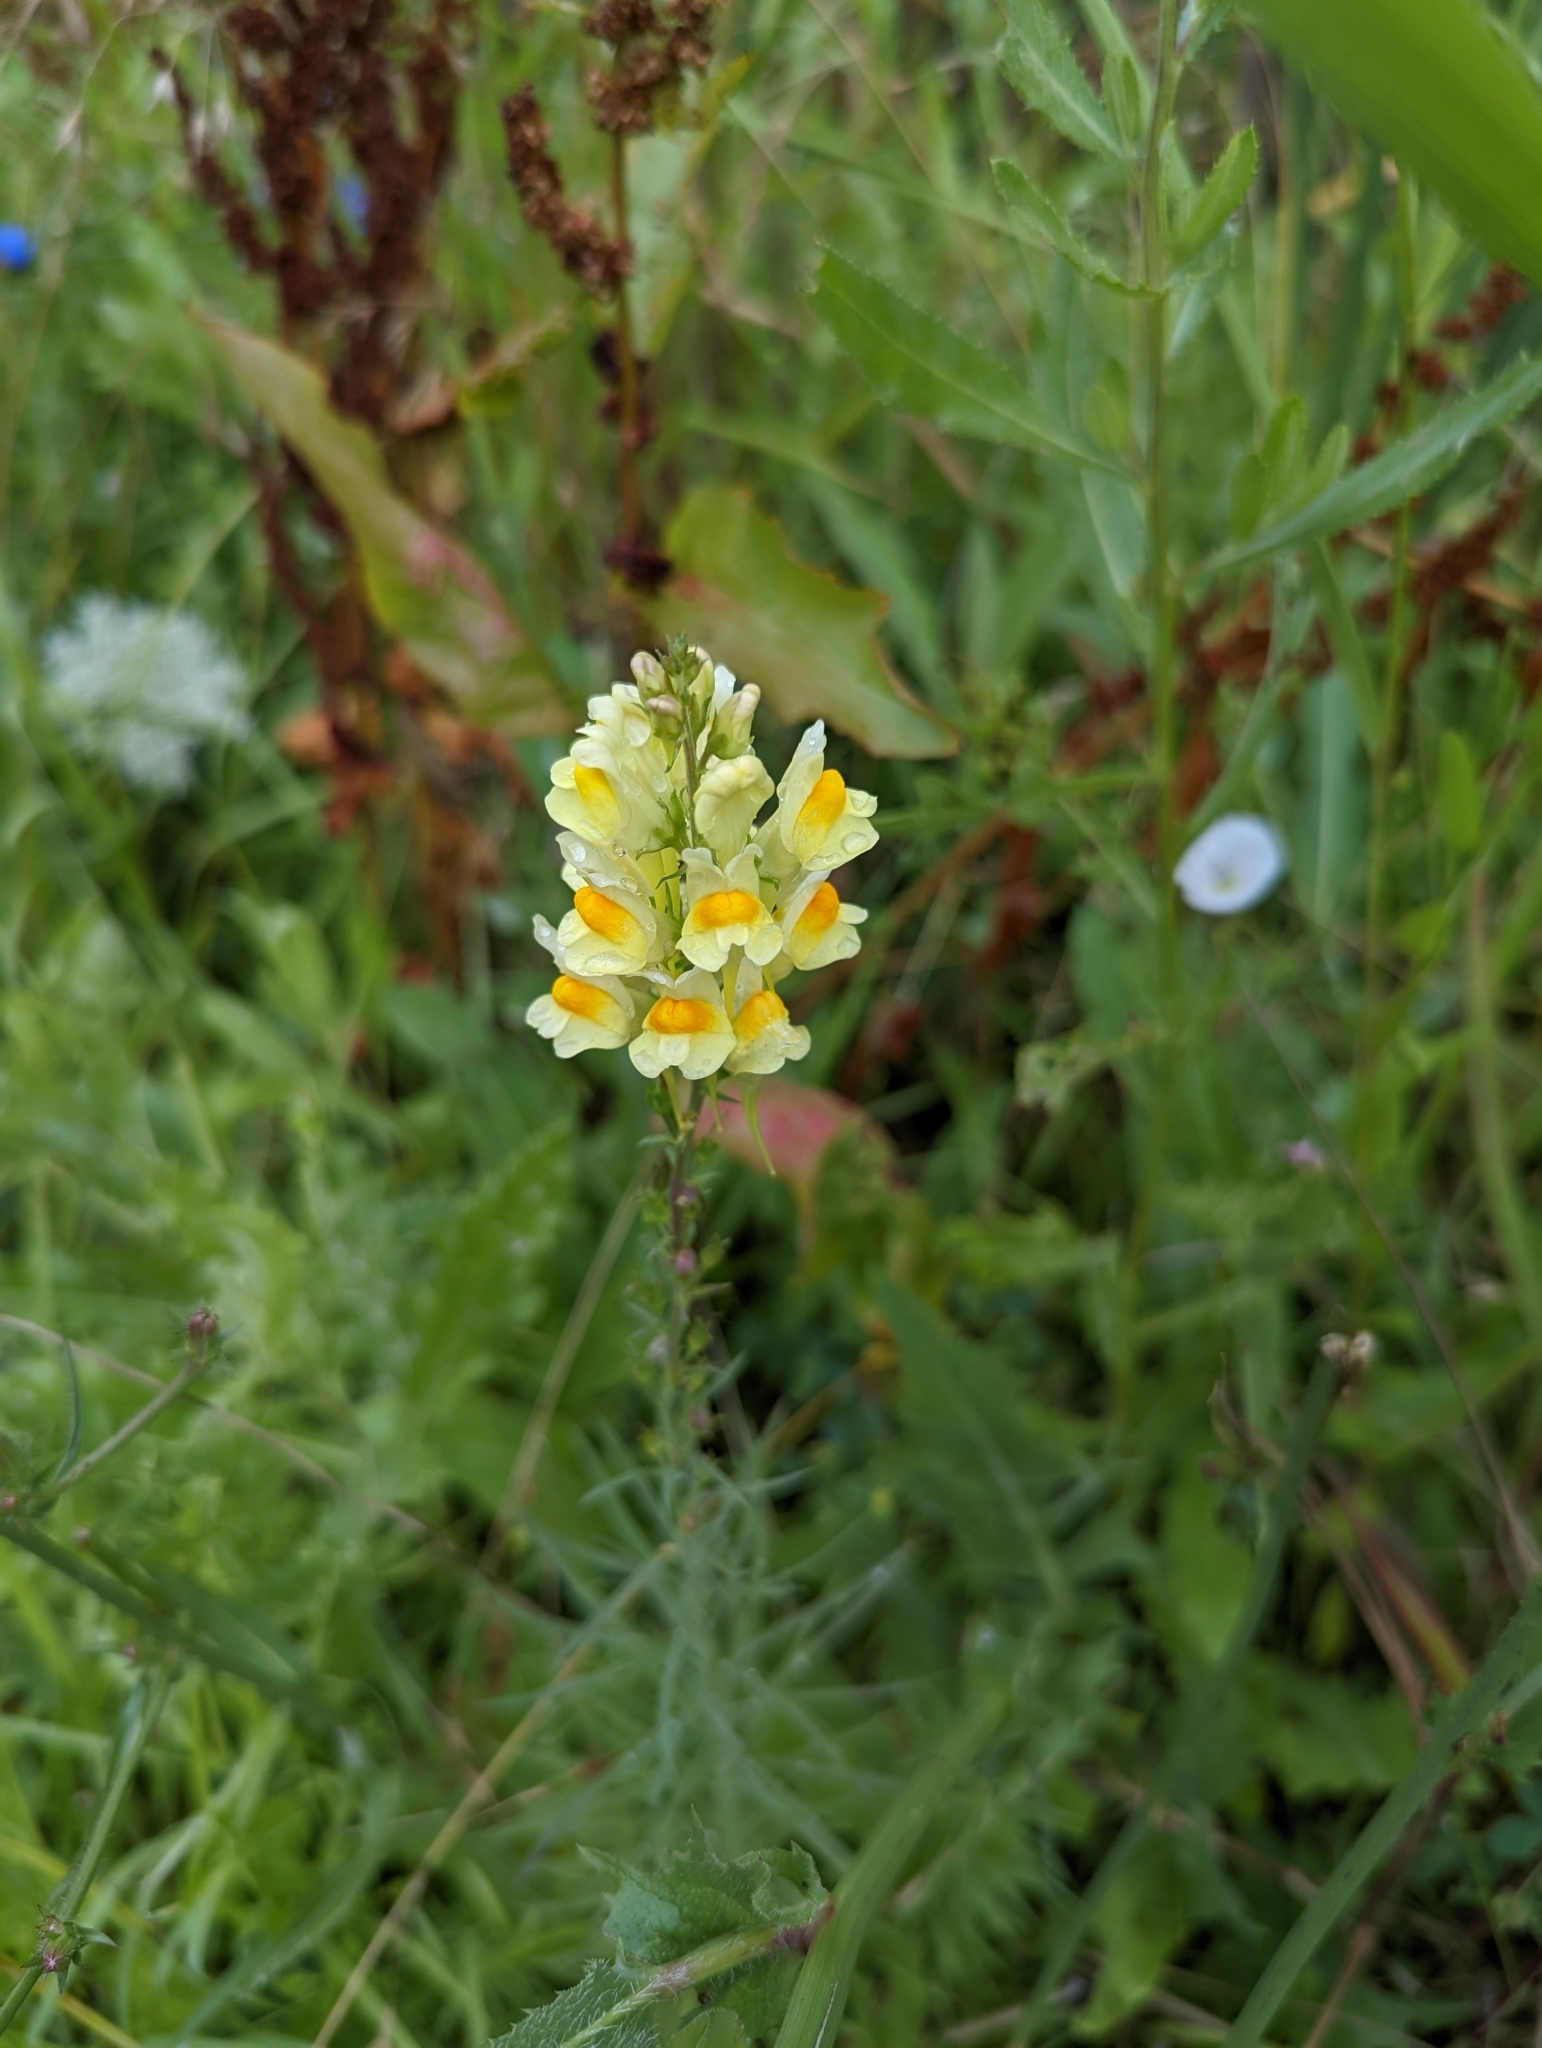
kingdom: Plantae
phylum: Tracheophyta
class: Magnoliopsida
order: Lamiales
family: Plantaginaceae
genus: Linaria
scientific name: Linaria vulgaris
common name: Butter and eggs
